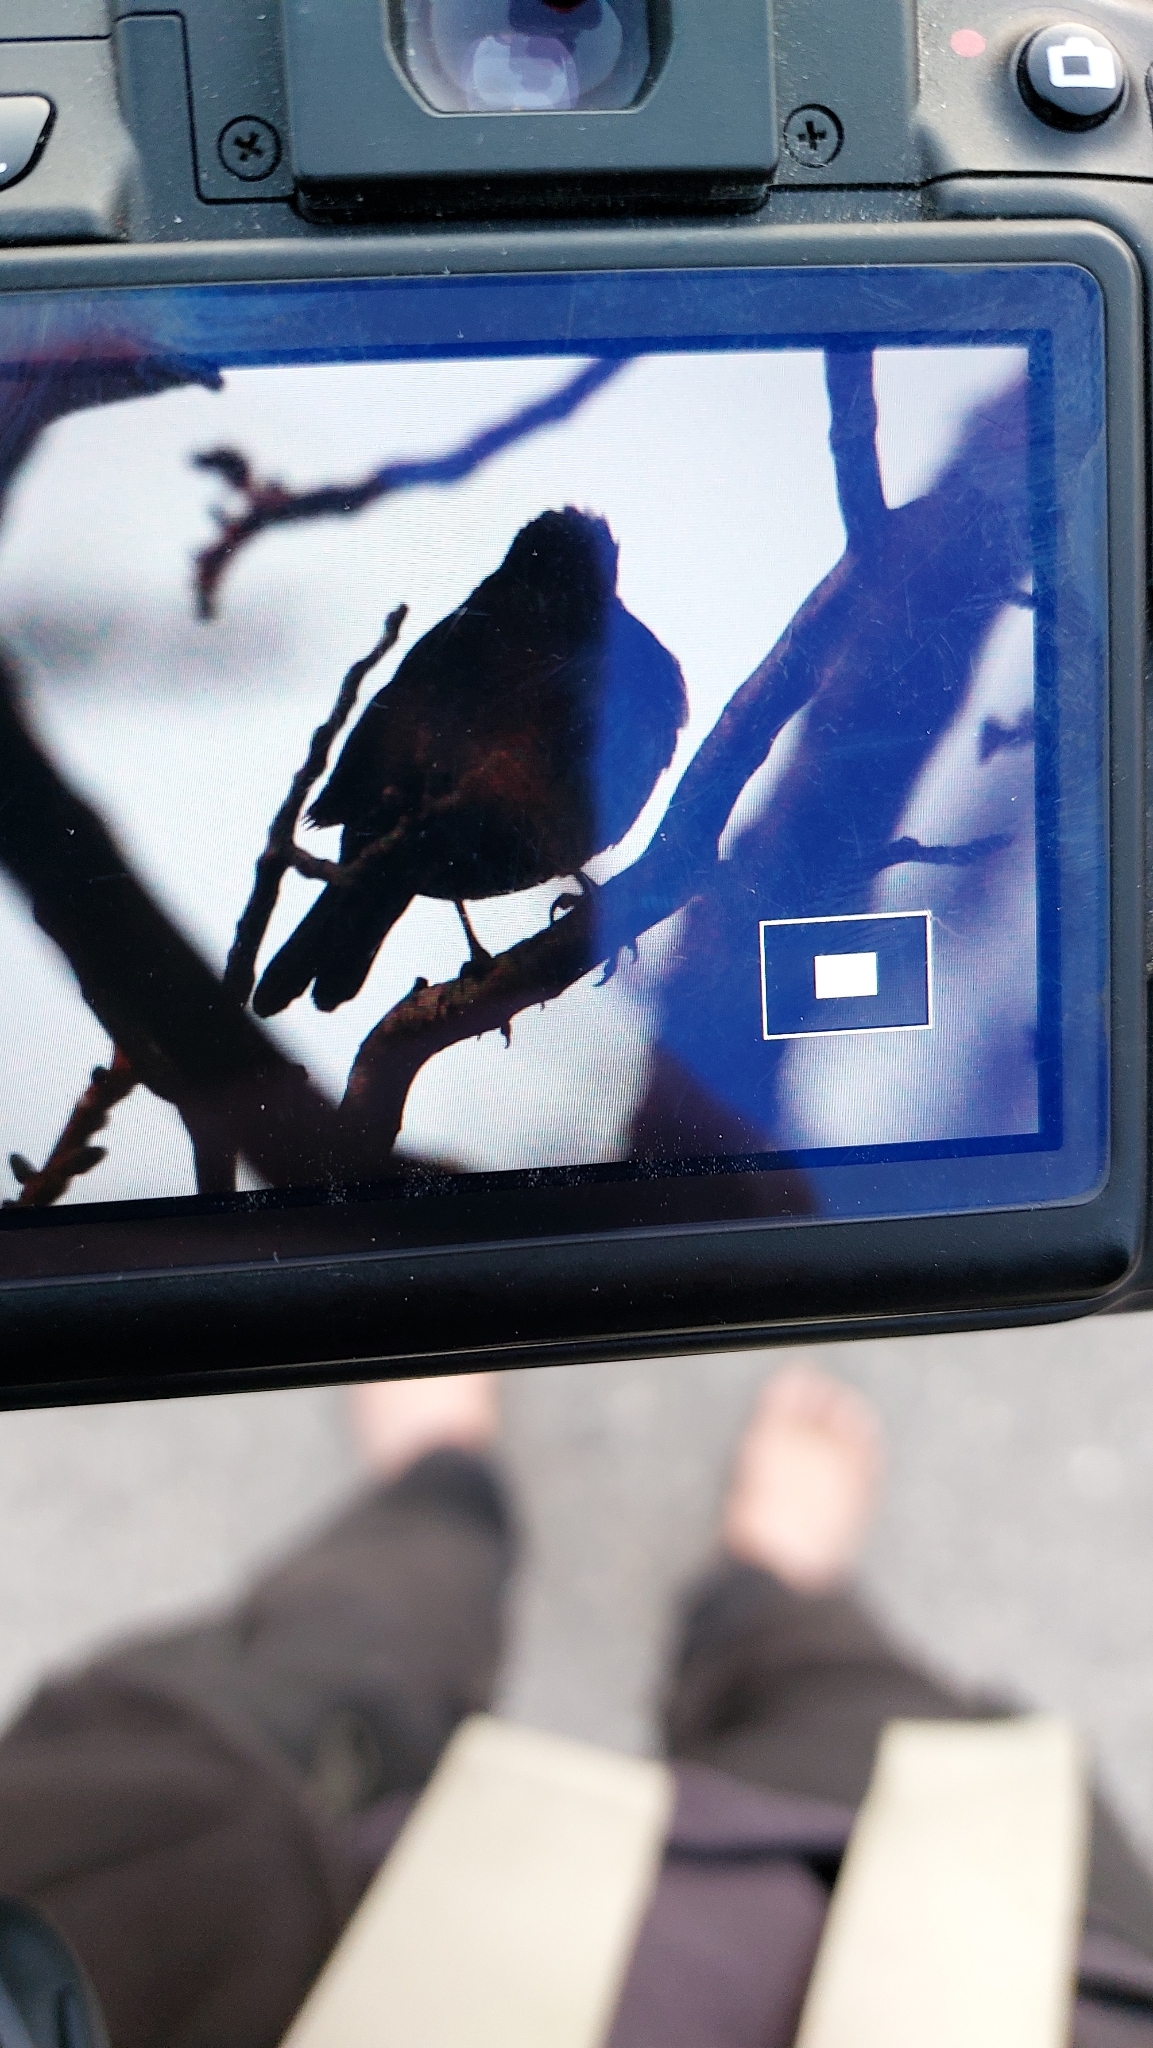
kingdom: Animalia
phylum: Chordata
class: Aves
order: Passeriformes
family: Turdidae
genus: Turdus
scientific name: Turdus merula
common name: Common blackbird
